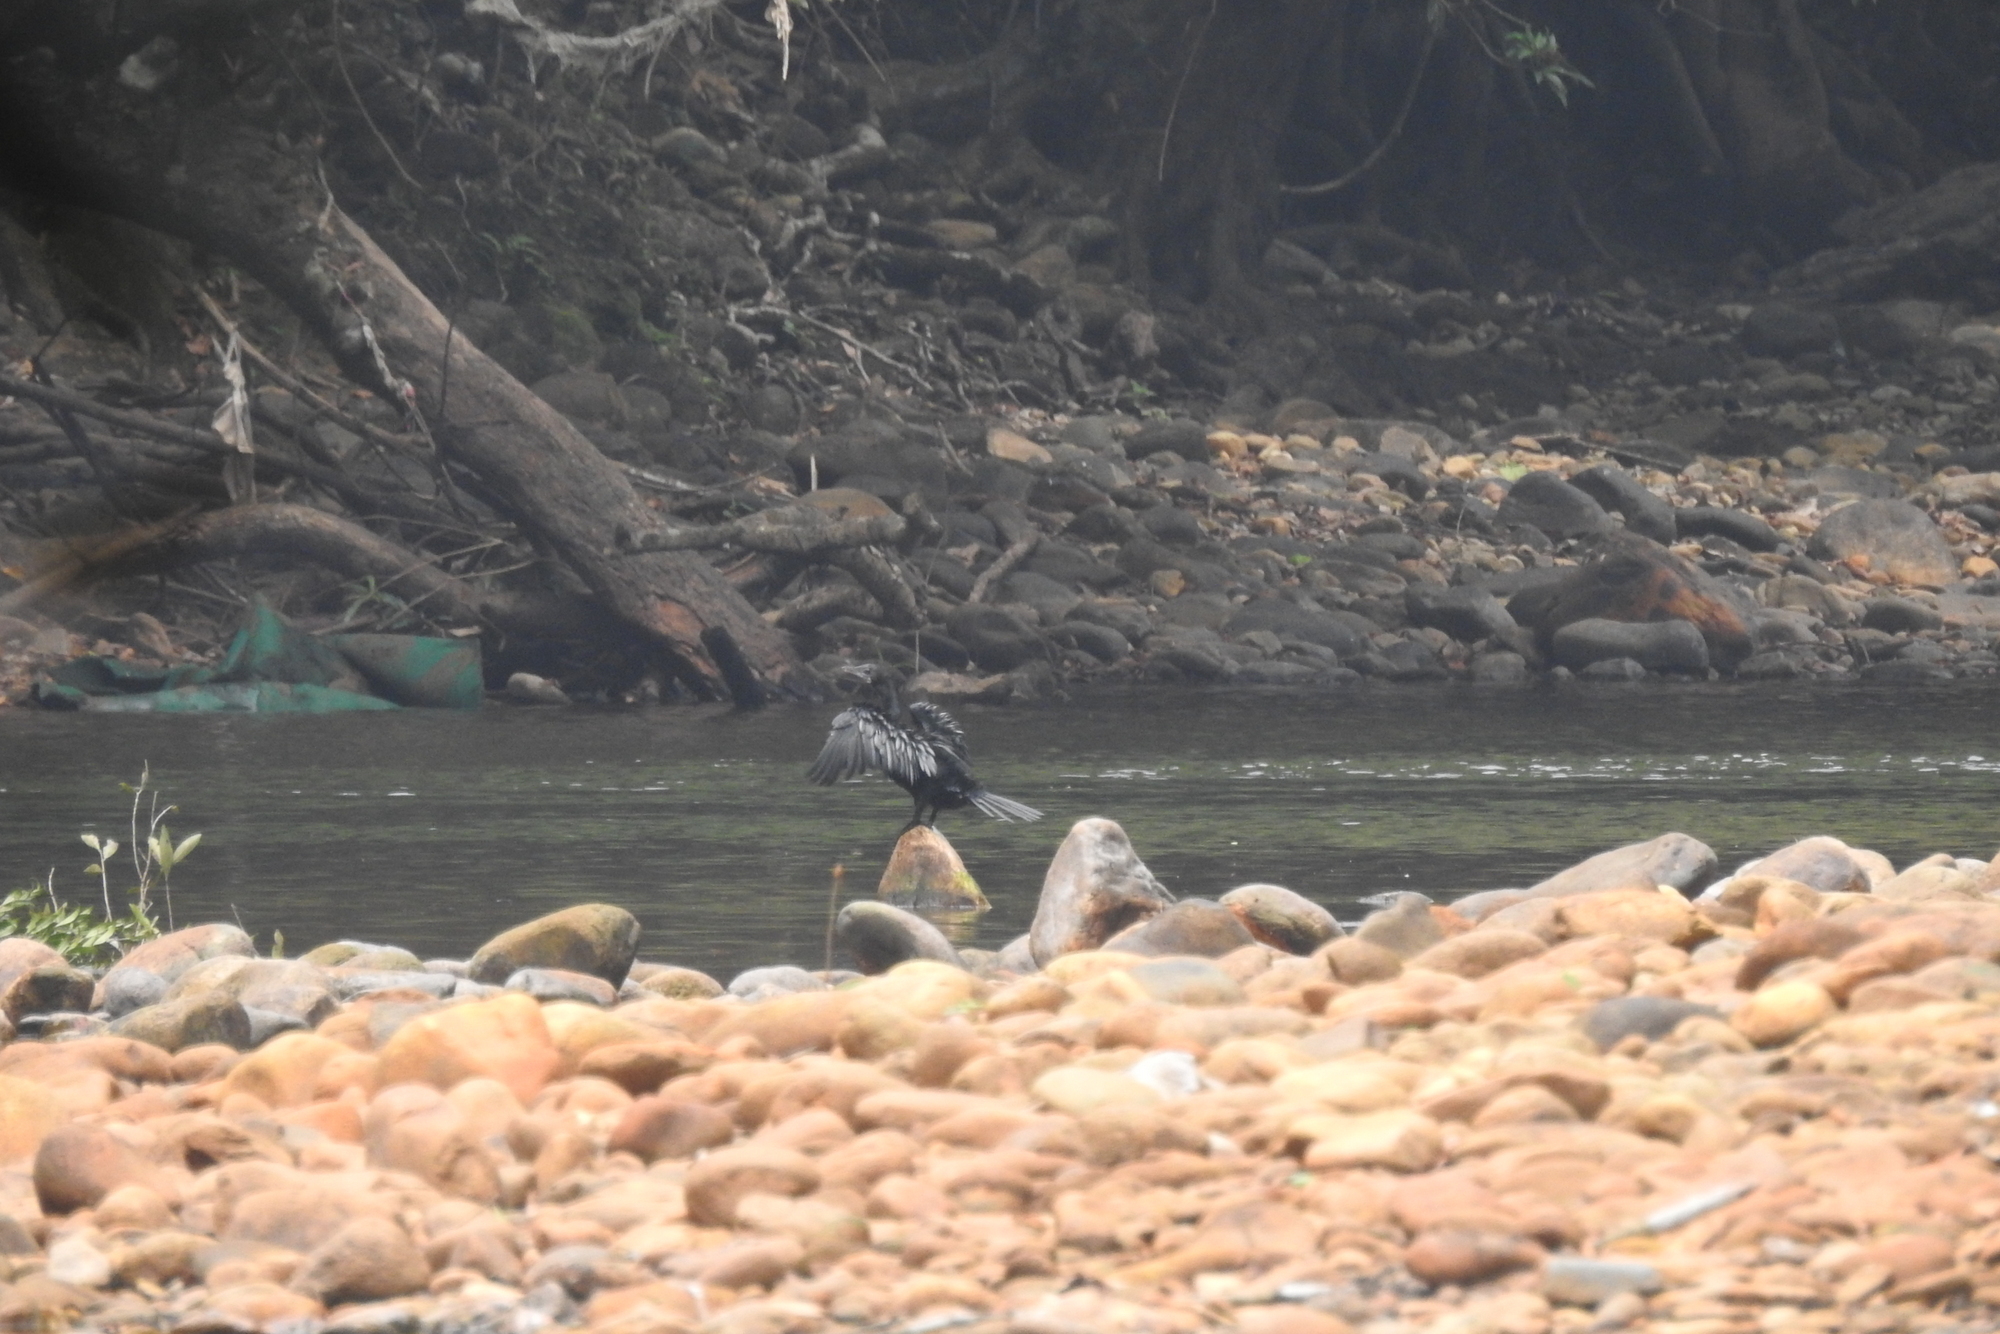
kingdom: Animalia
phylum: Chordata
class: Aves
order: Suliformes
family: Phalacrocoracidae
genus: Microcarbo
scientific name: Microcarbo niger
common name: Little cormorant
